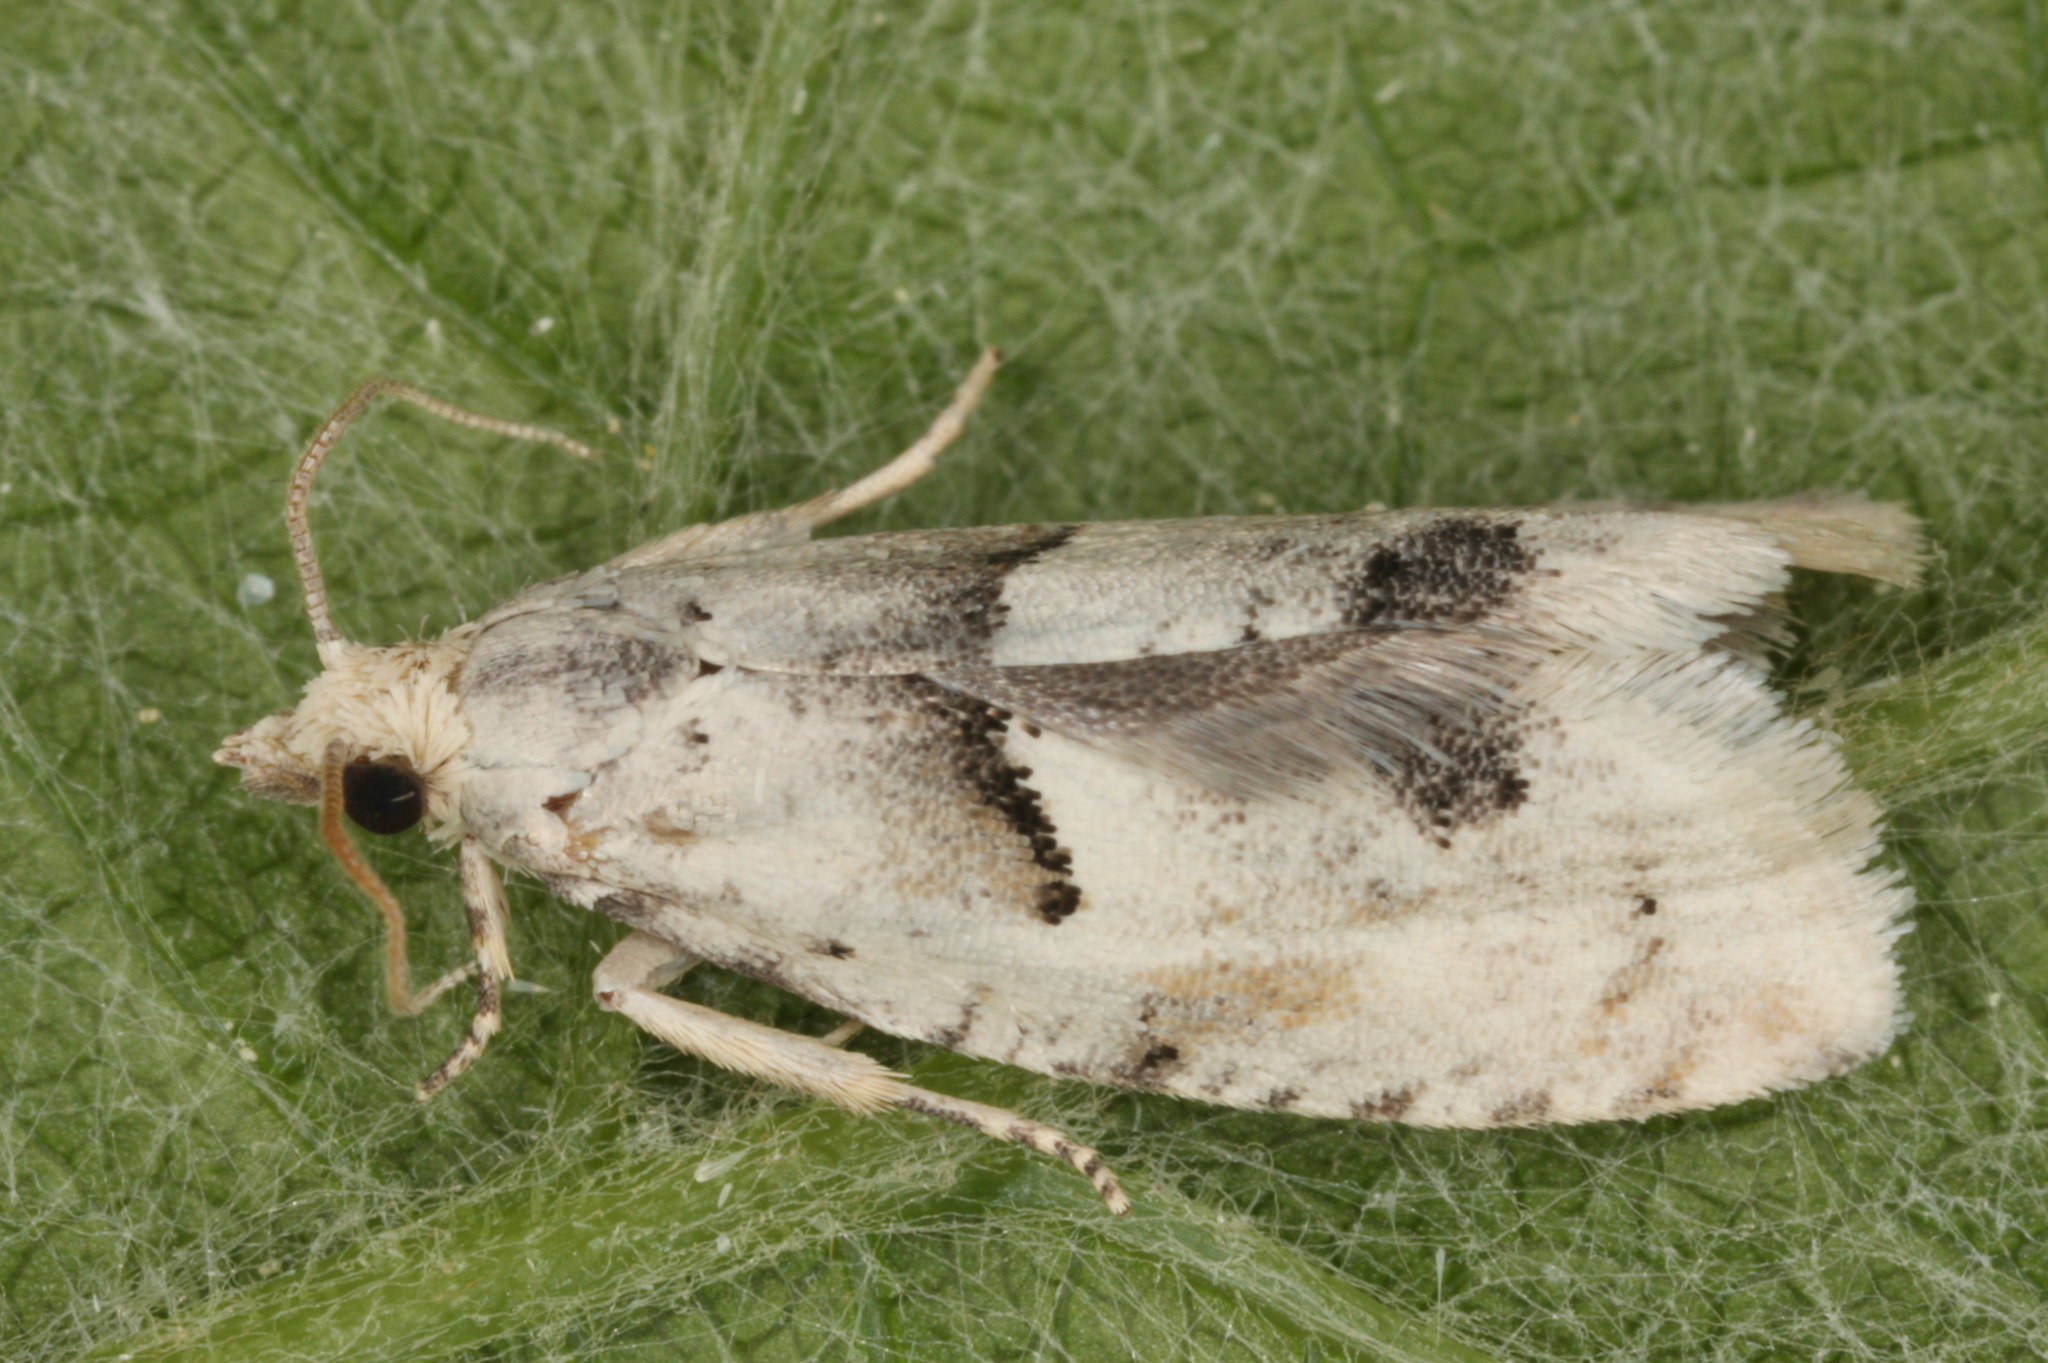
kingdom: Animalia
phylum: Arthropoda
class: Insecta
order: Lepidoptera
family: Tortricidae
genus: Epinotia
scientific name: Epinotia bilunana
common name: Crescent bell
